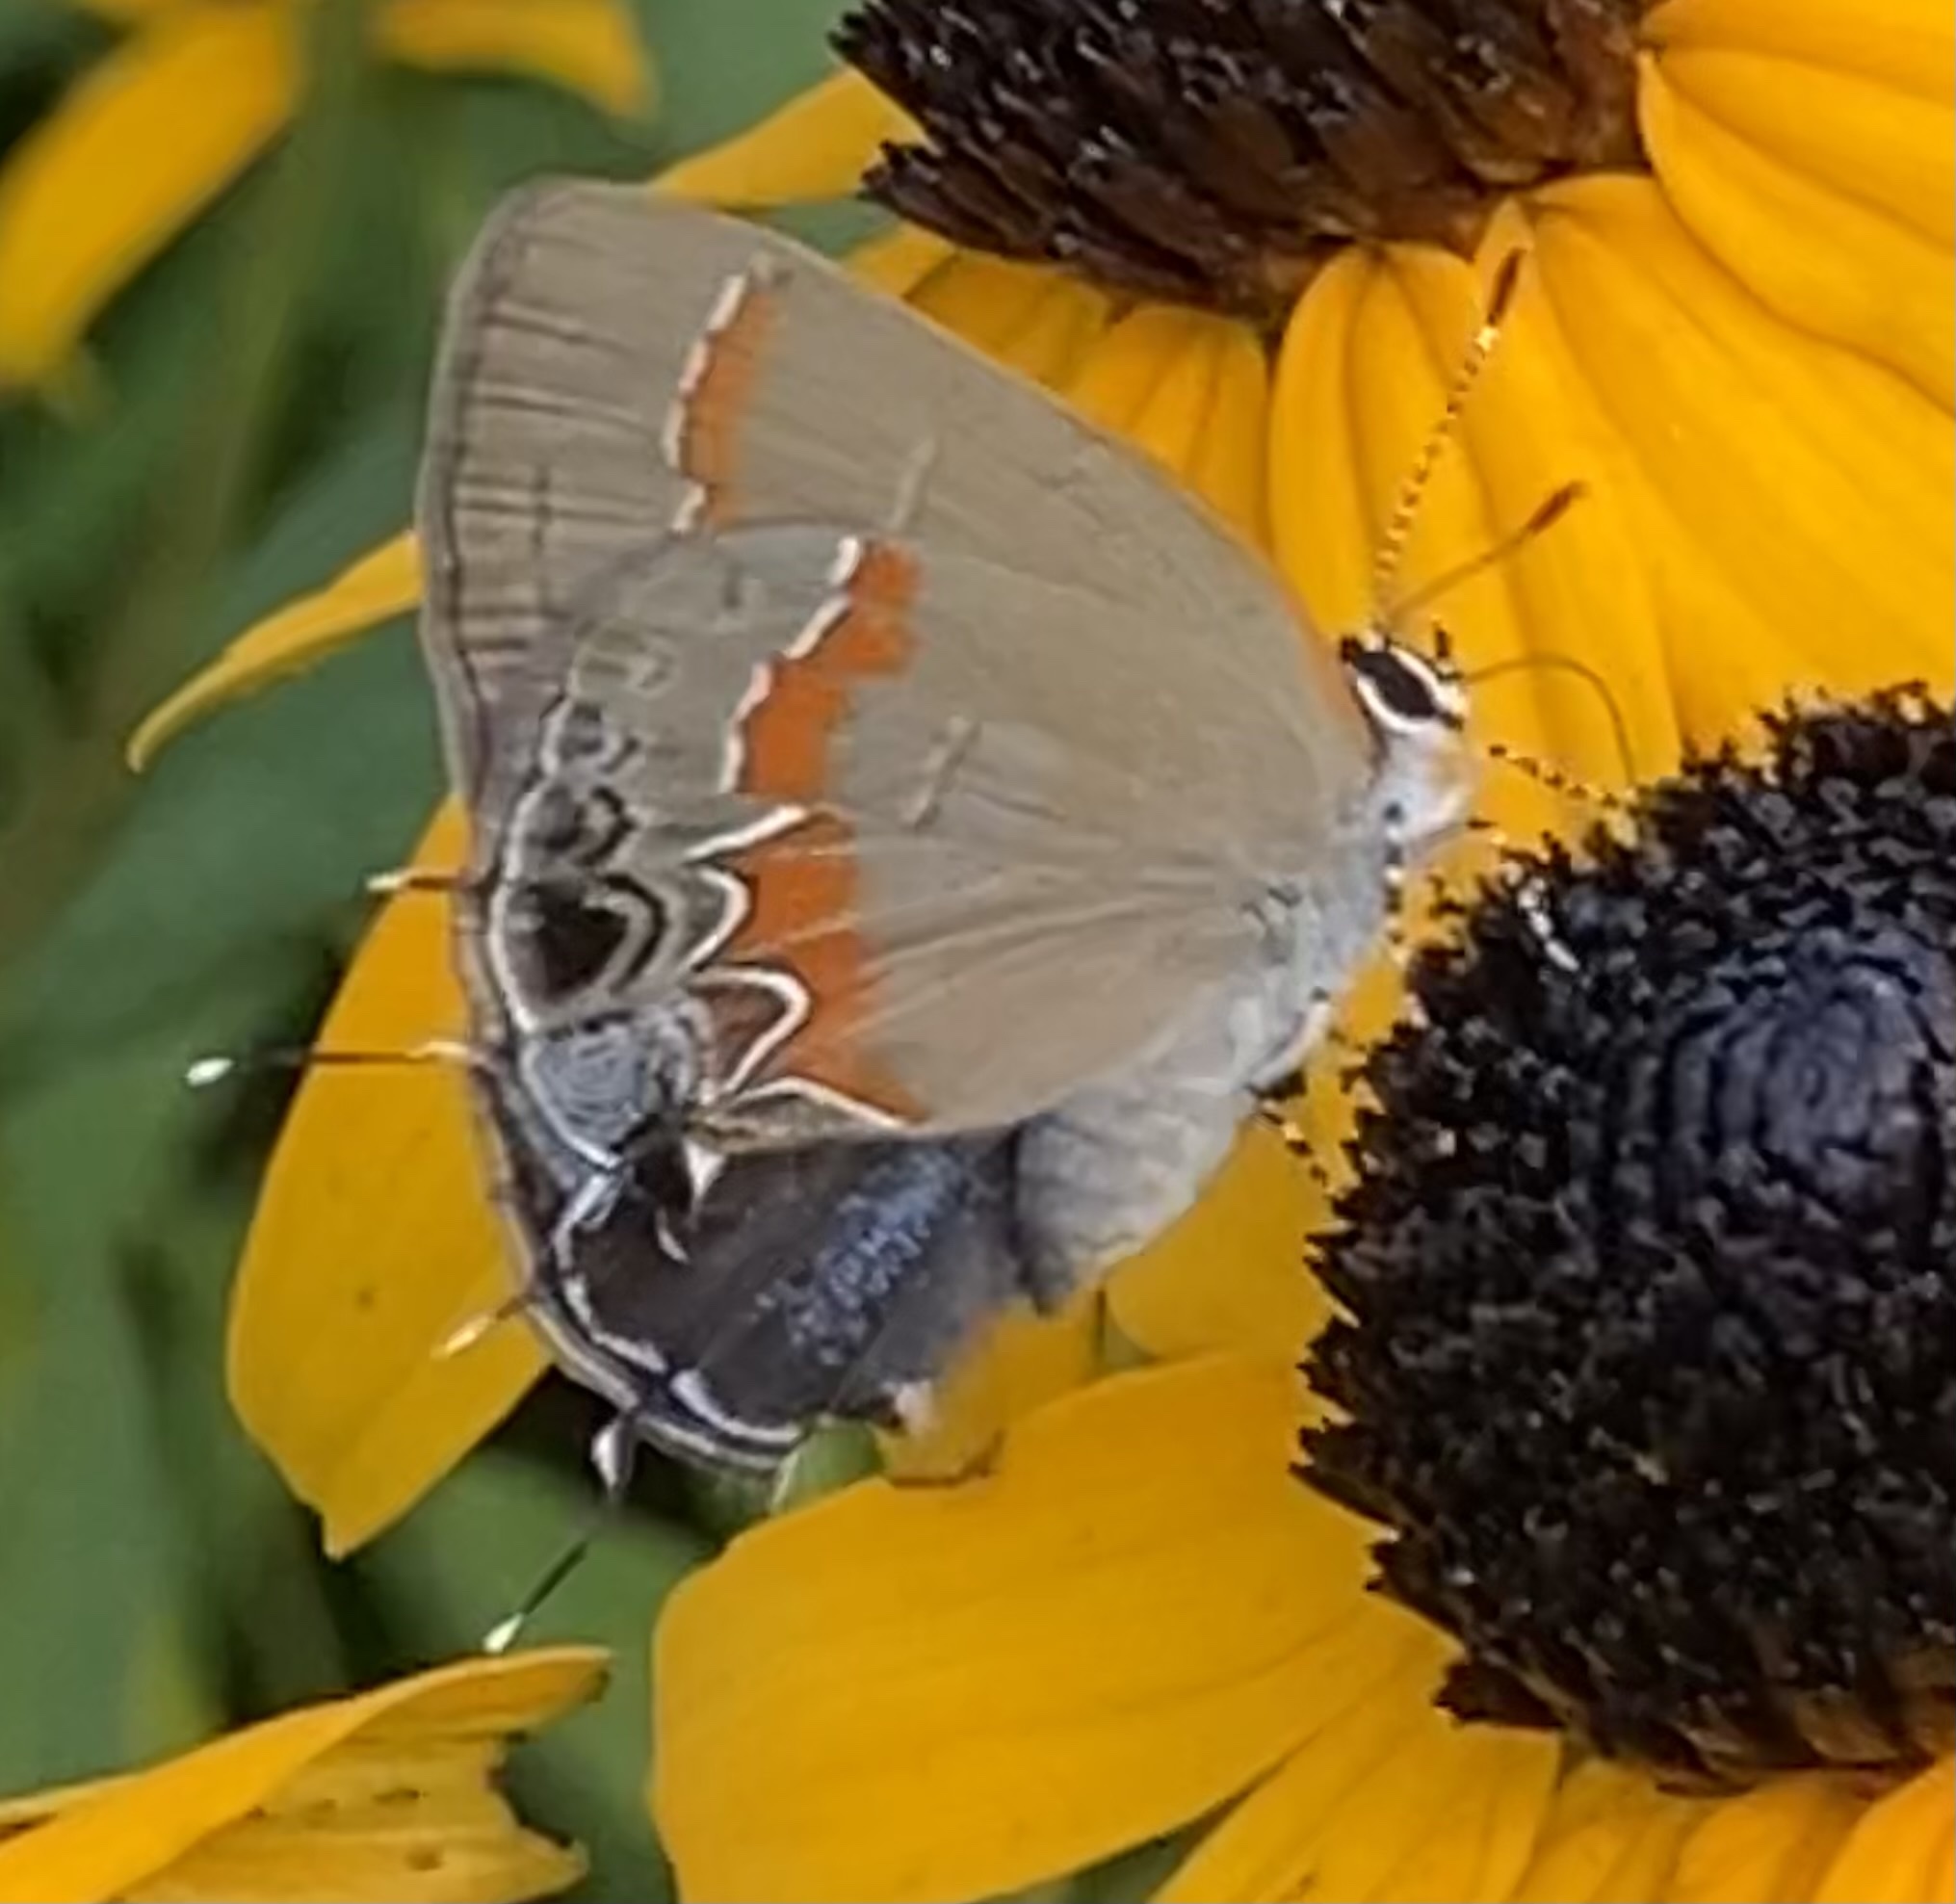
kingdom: Animalia
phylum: Arthropoda
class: Insecta
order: Lepidoptera
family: Lycaenidae
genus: Calycopis
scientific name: Calycopis cecrops
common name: Red-banded hairstreak
